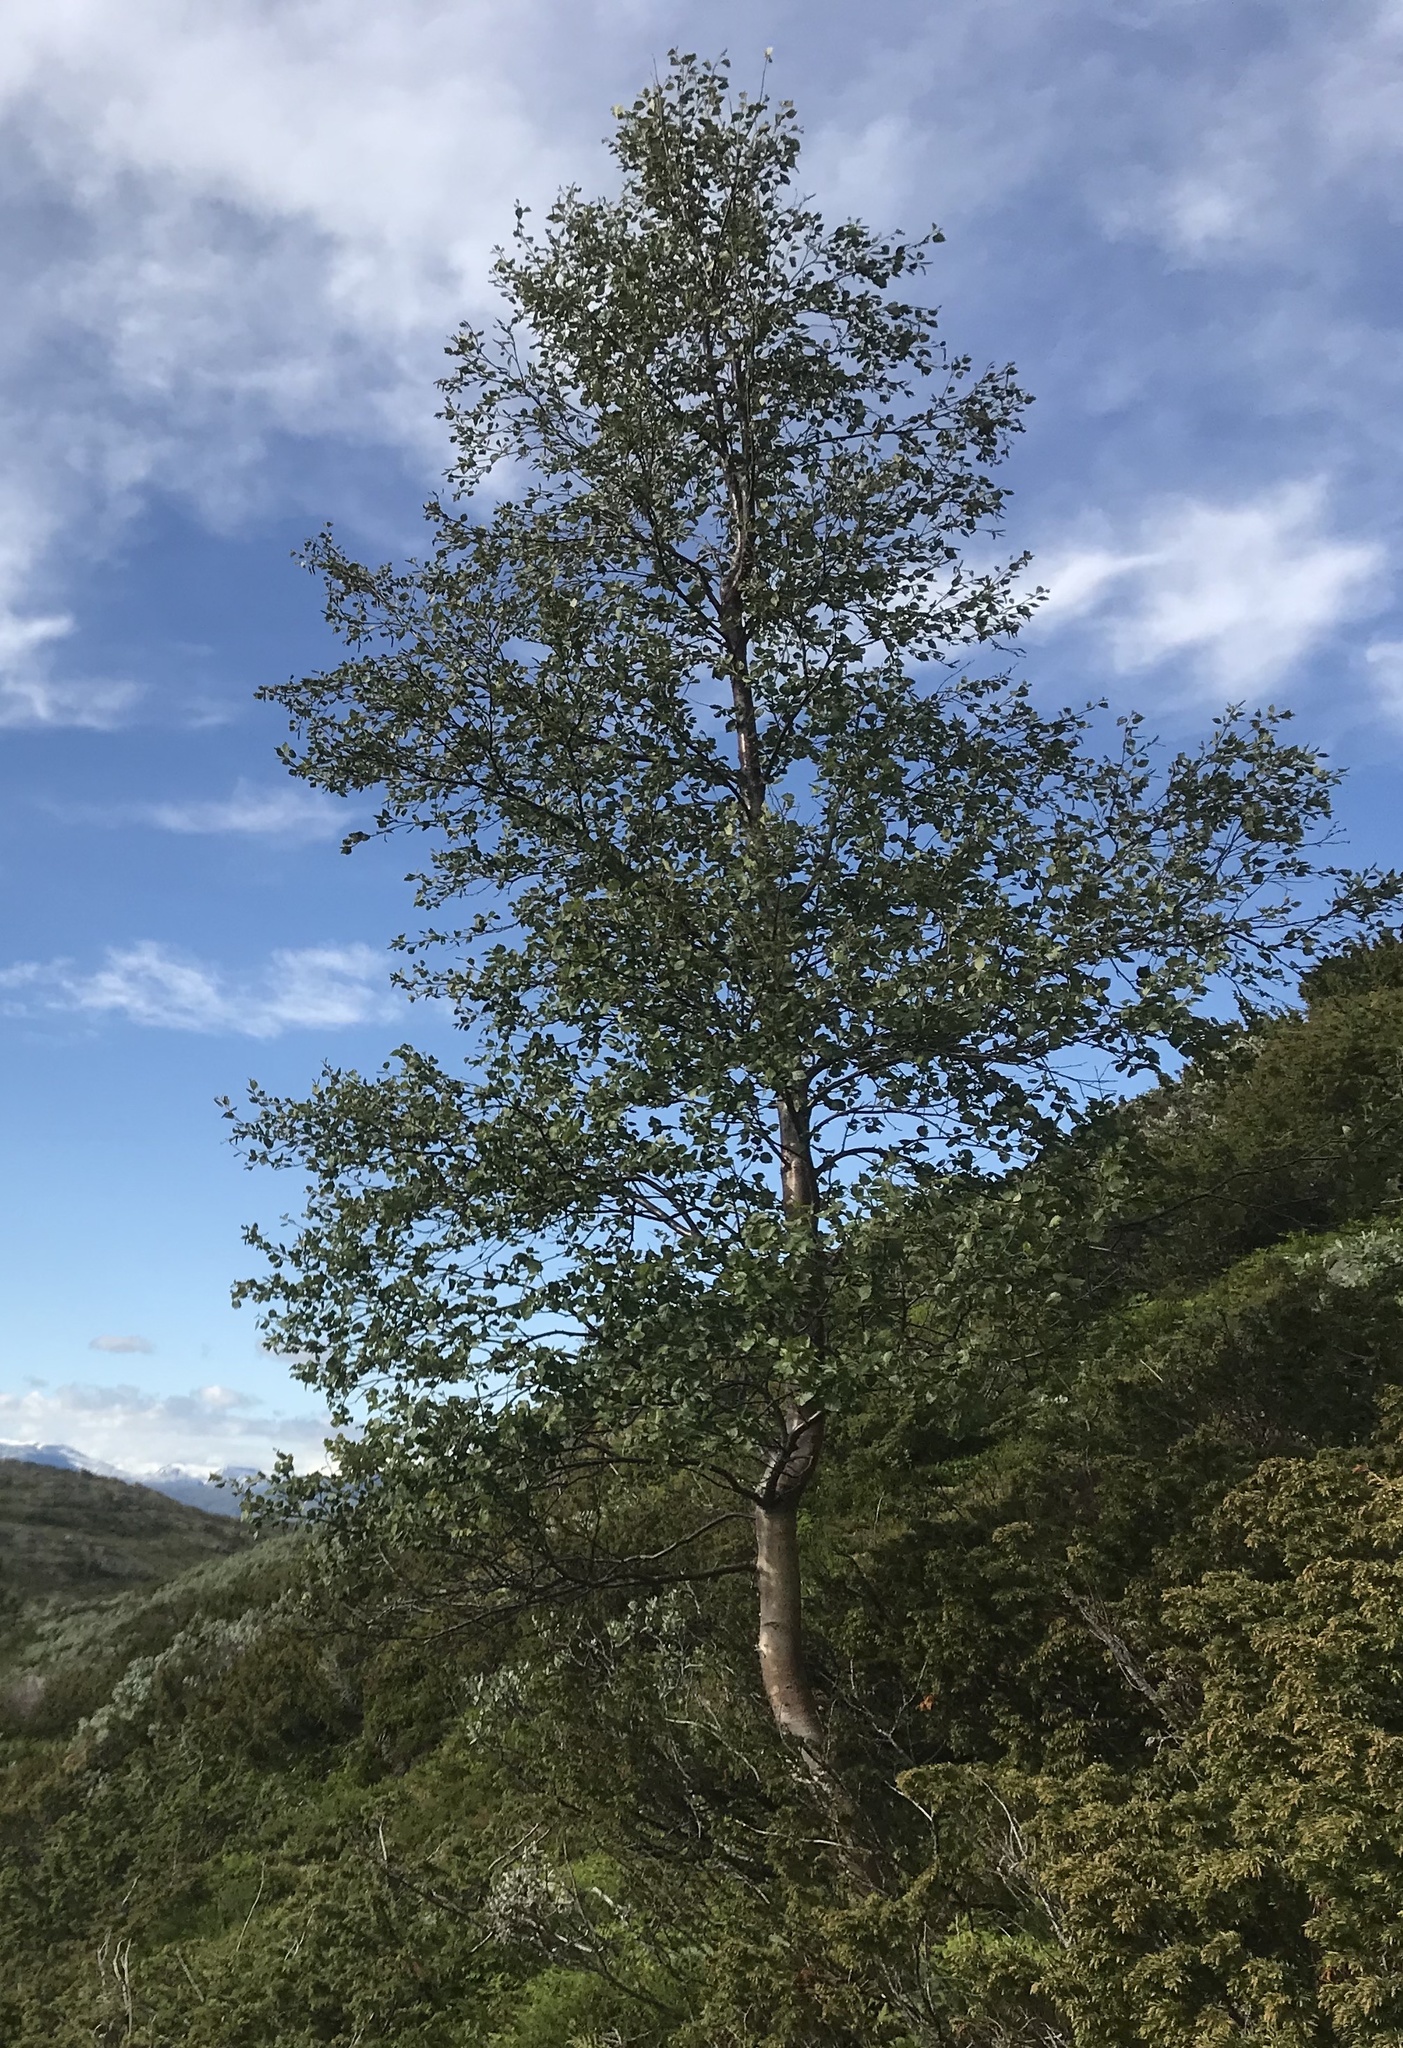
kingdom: Plantae
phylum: Tracheophyta
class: Magnoliopsida
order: Fagales
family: Betulaceae
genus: Betula
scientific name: Betula pubescens
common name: Downy birch
